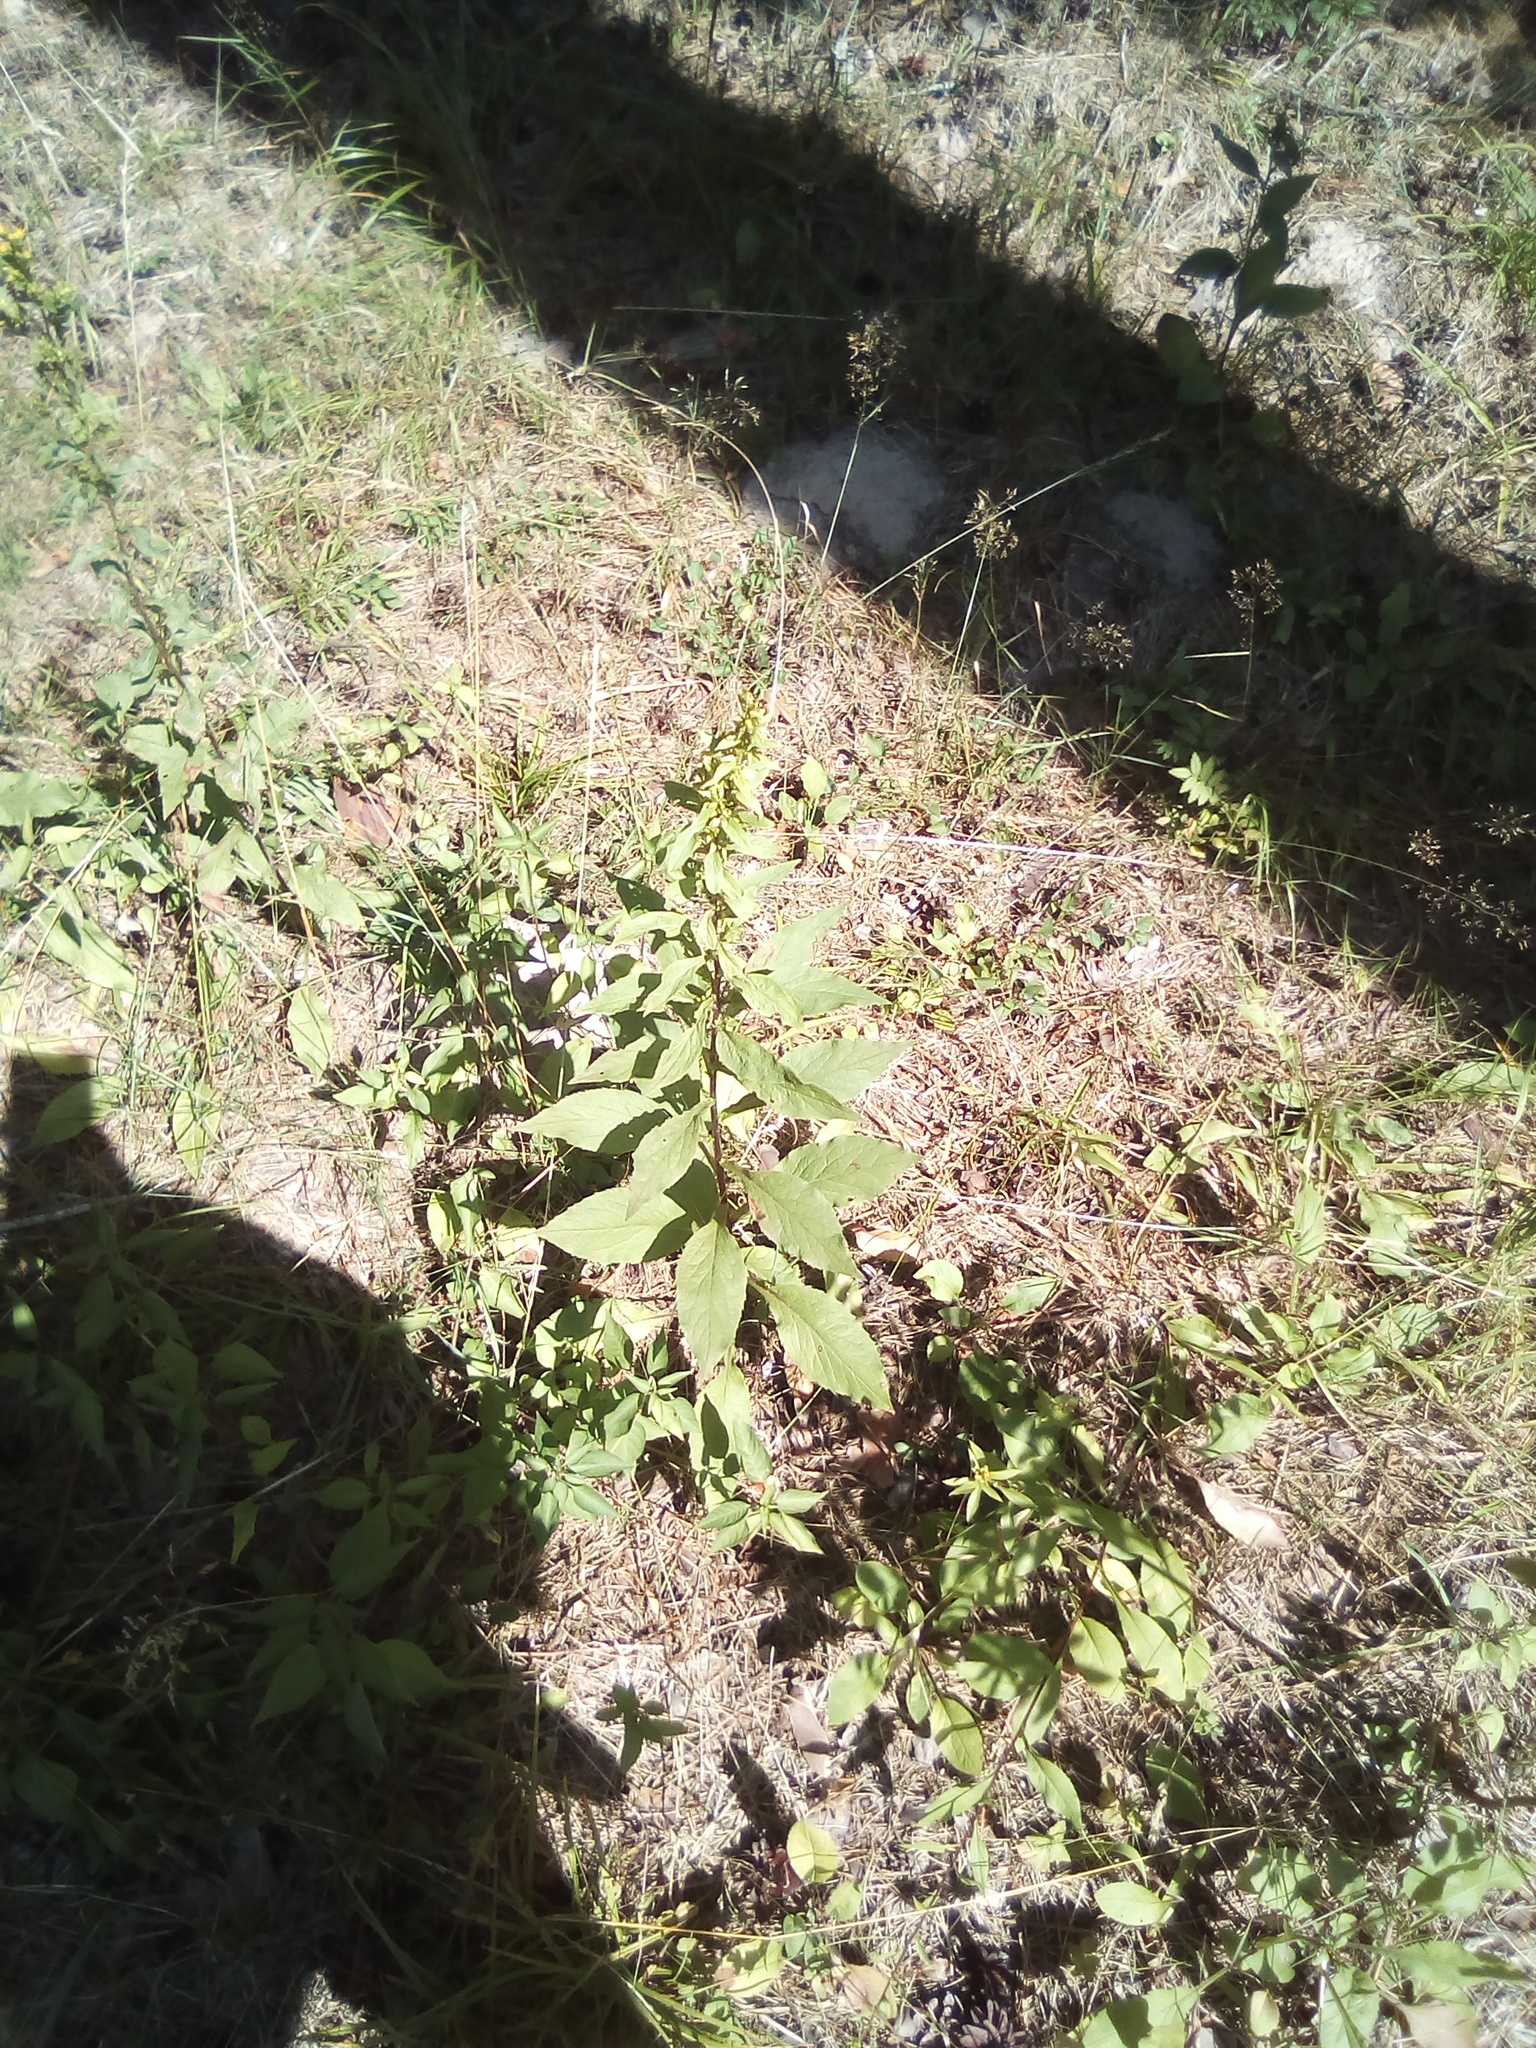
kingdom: Plantae
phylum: Tracheophyta
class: Magnoliopsida
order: Asterales
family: Asteraceae
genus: Solidago
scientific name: Solidago virgaurea
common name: Goldenrod
